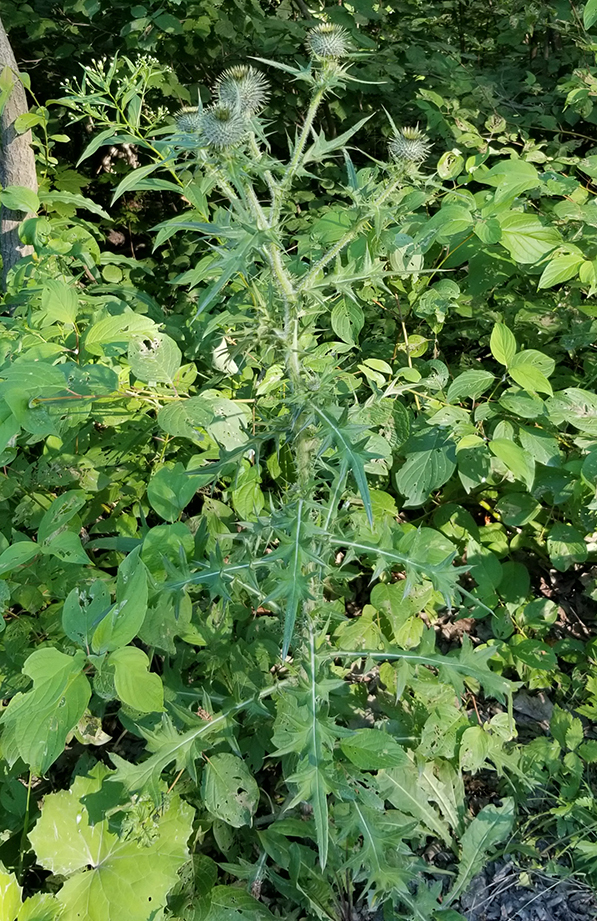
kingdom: Plantae
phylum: Tracheophyta
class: Magnoliopsida
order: Asterales
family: Asteraceae
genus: Cirsium
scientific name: Cirsium vulgare
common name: Bull thistle
